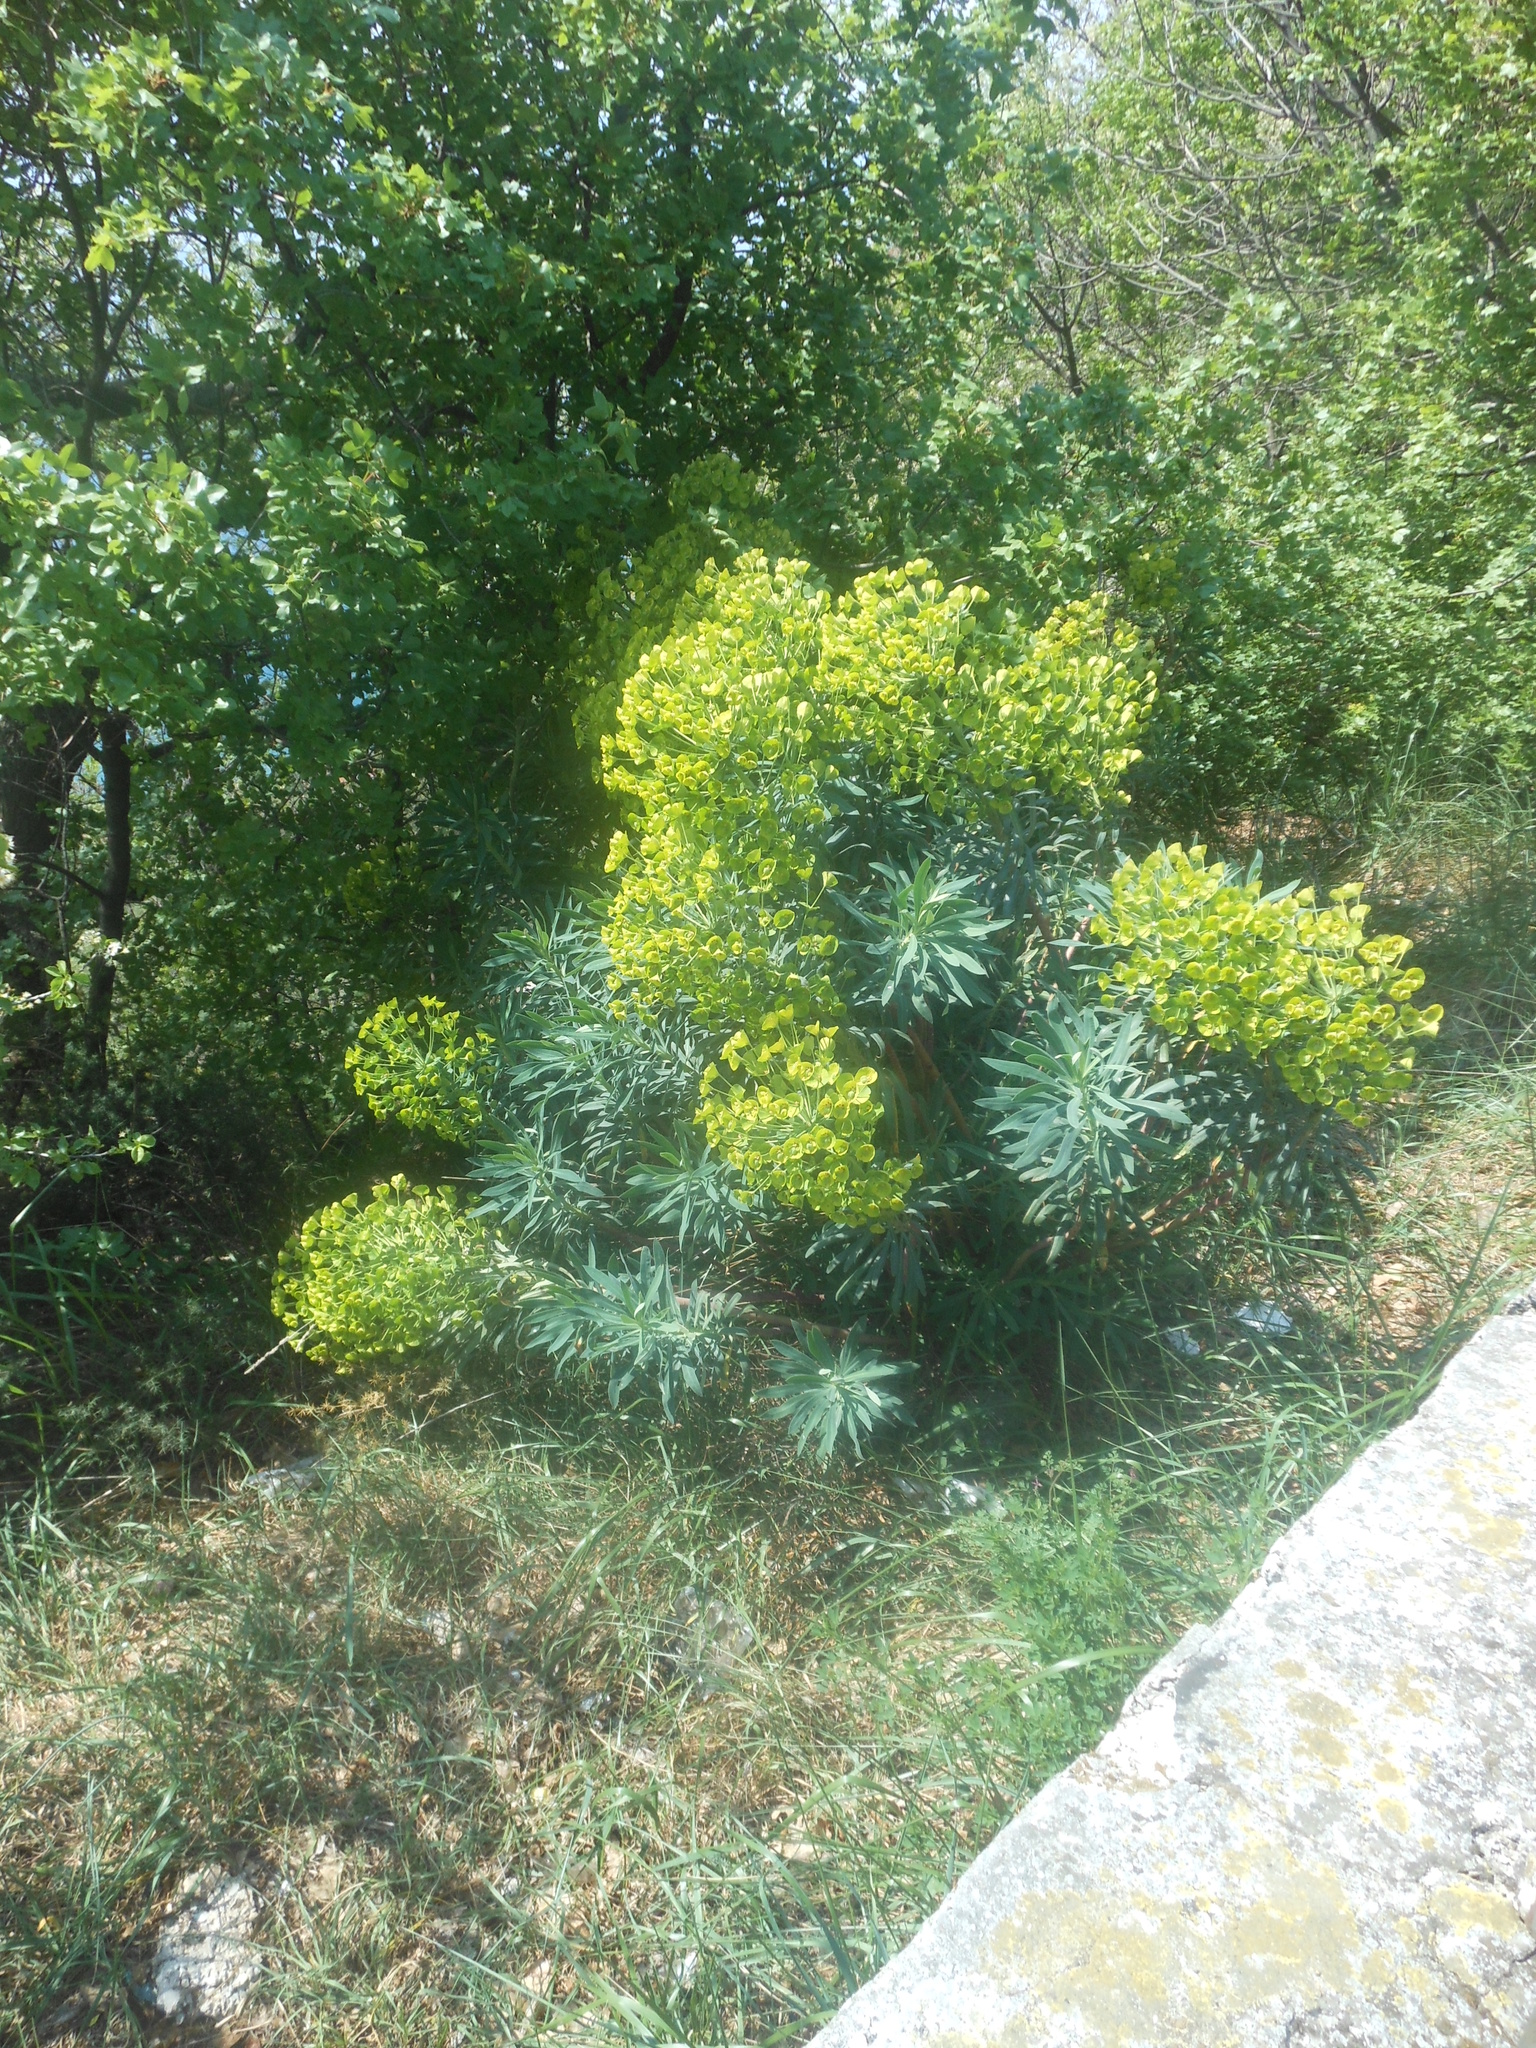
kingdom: Plantae
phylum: Tracheophyta
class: Magnoliopsida
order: Malpighiales
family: Euphorbiaceae
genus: Euphorbia
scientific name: Euphorbia characias
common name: Mediterranean spurge
